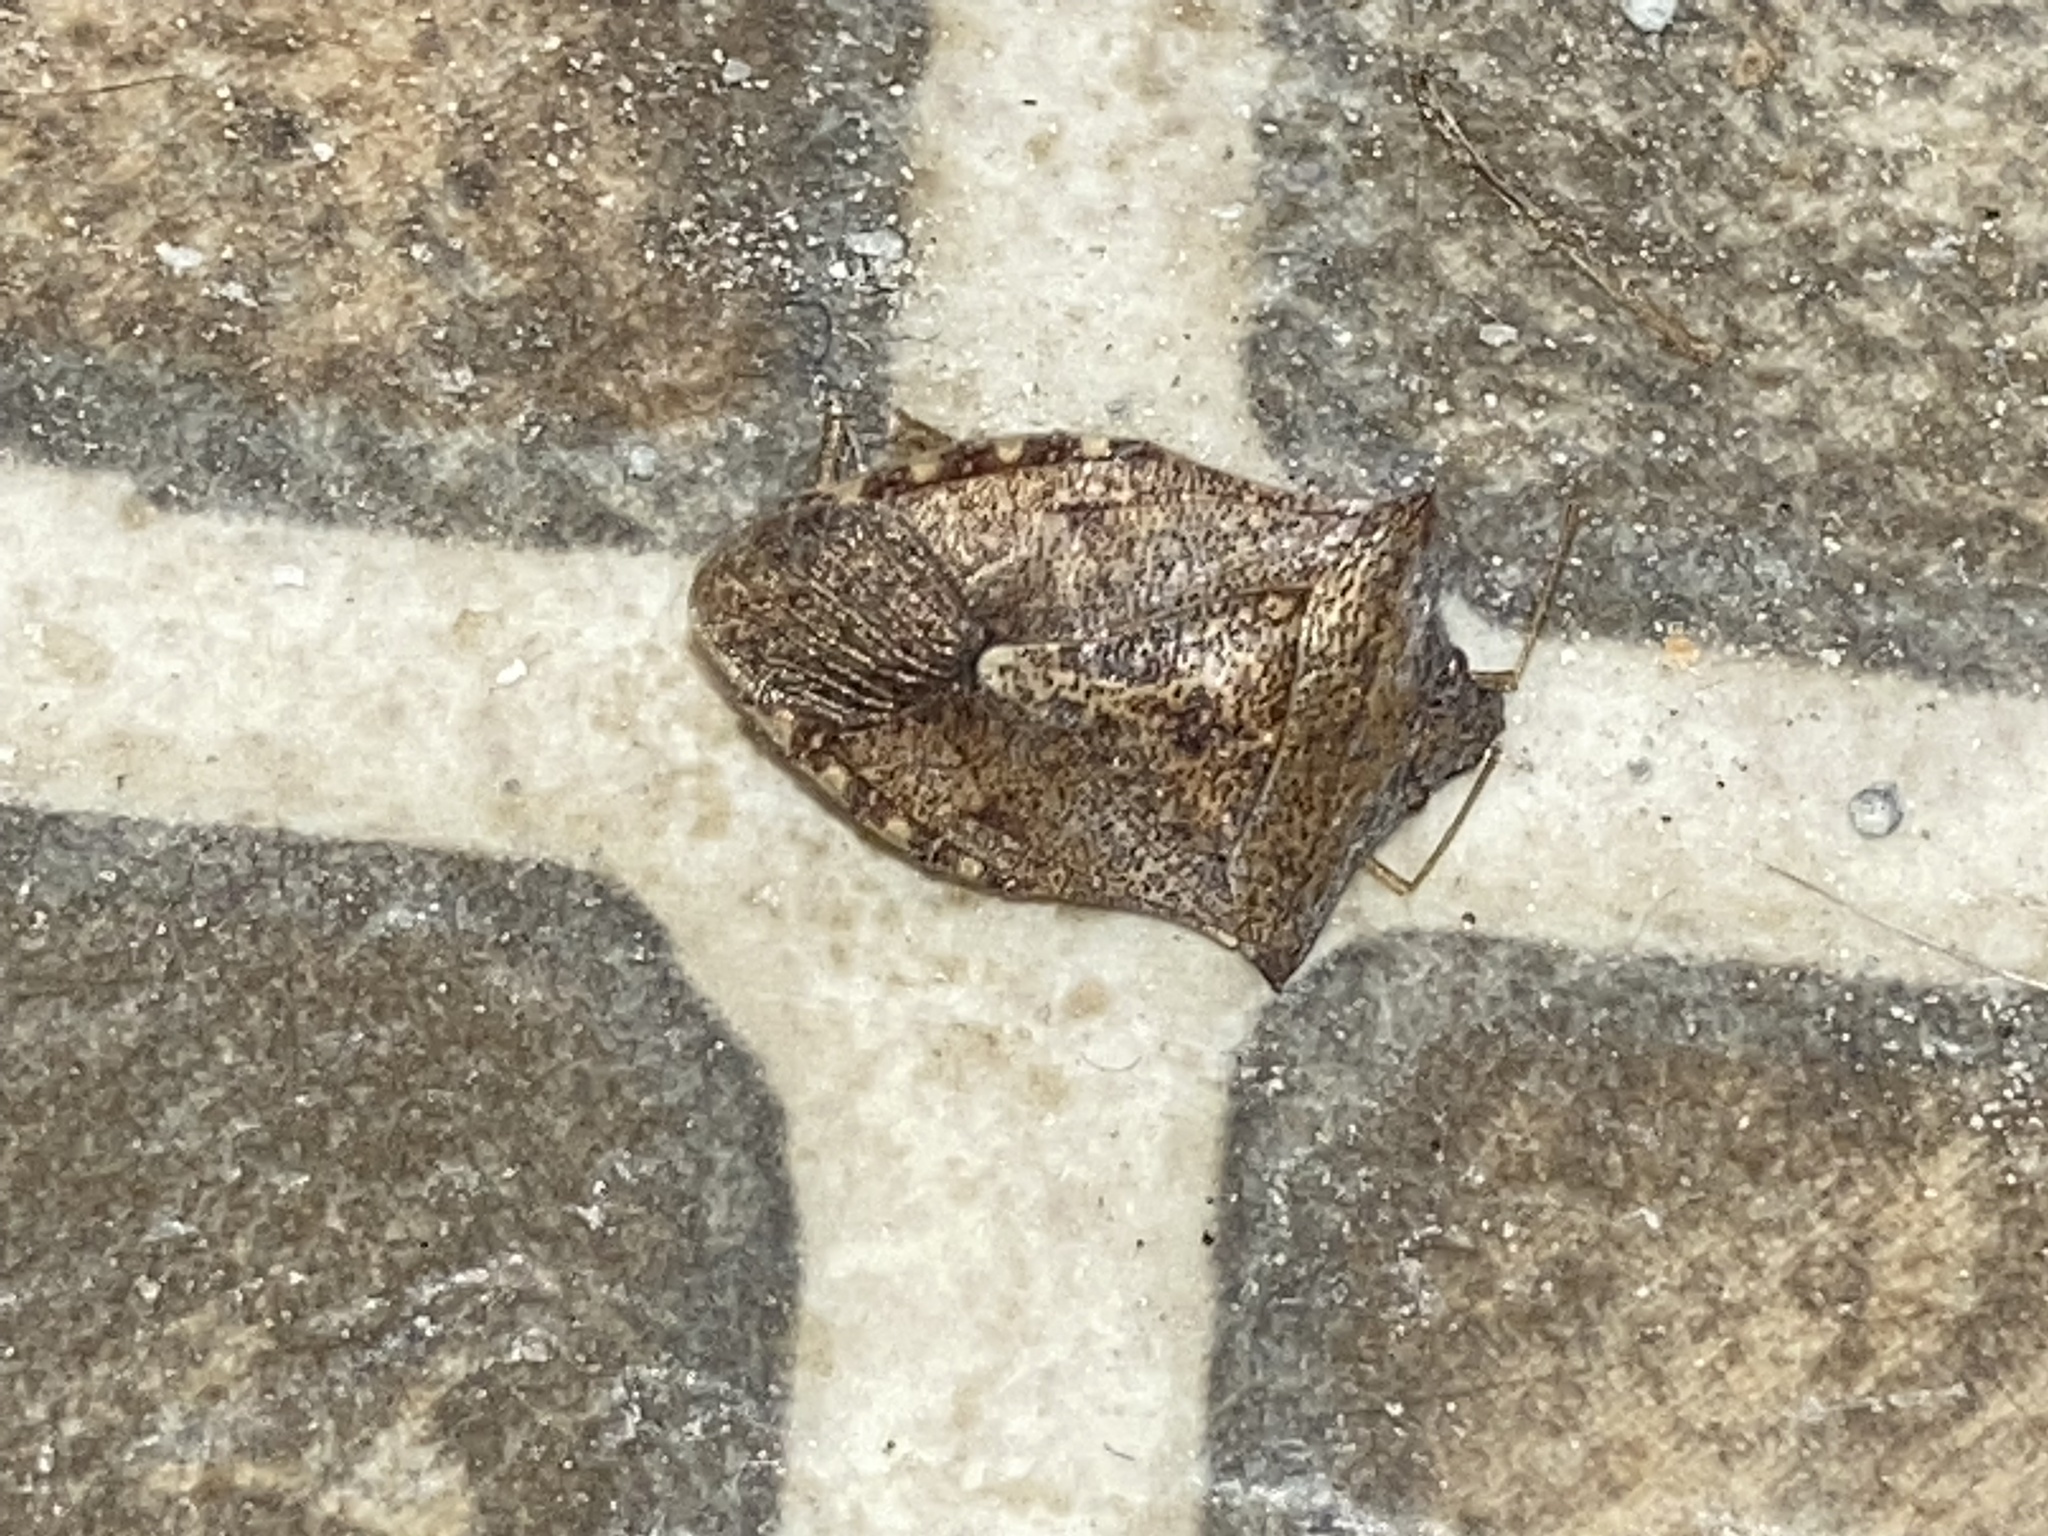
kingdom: Animalia
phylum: Arthropoda
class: Insecta
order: Hemiptera
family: Pentatomidae
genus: Euschistus
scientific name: Euschistus servus
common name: Brown stink bug
